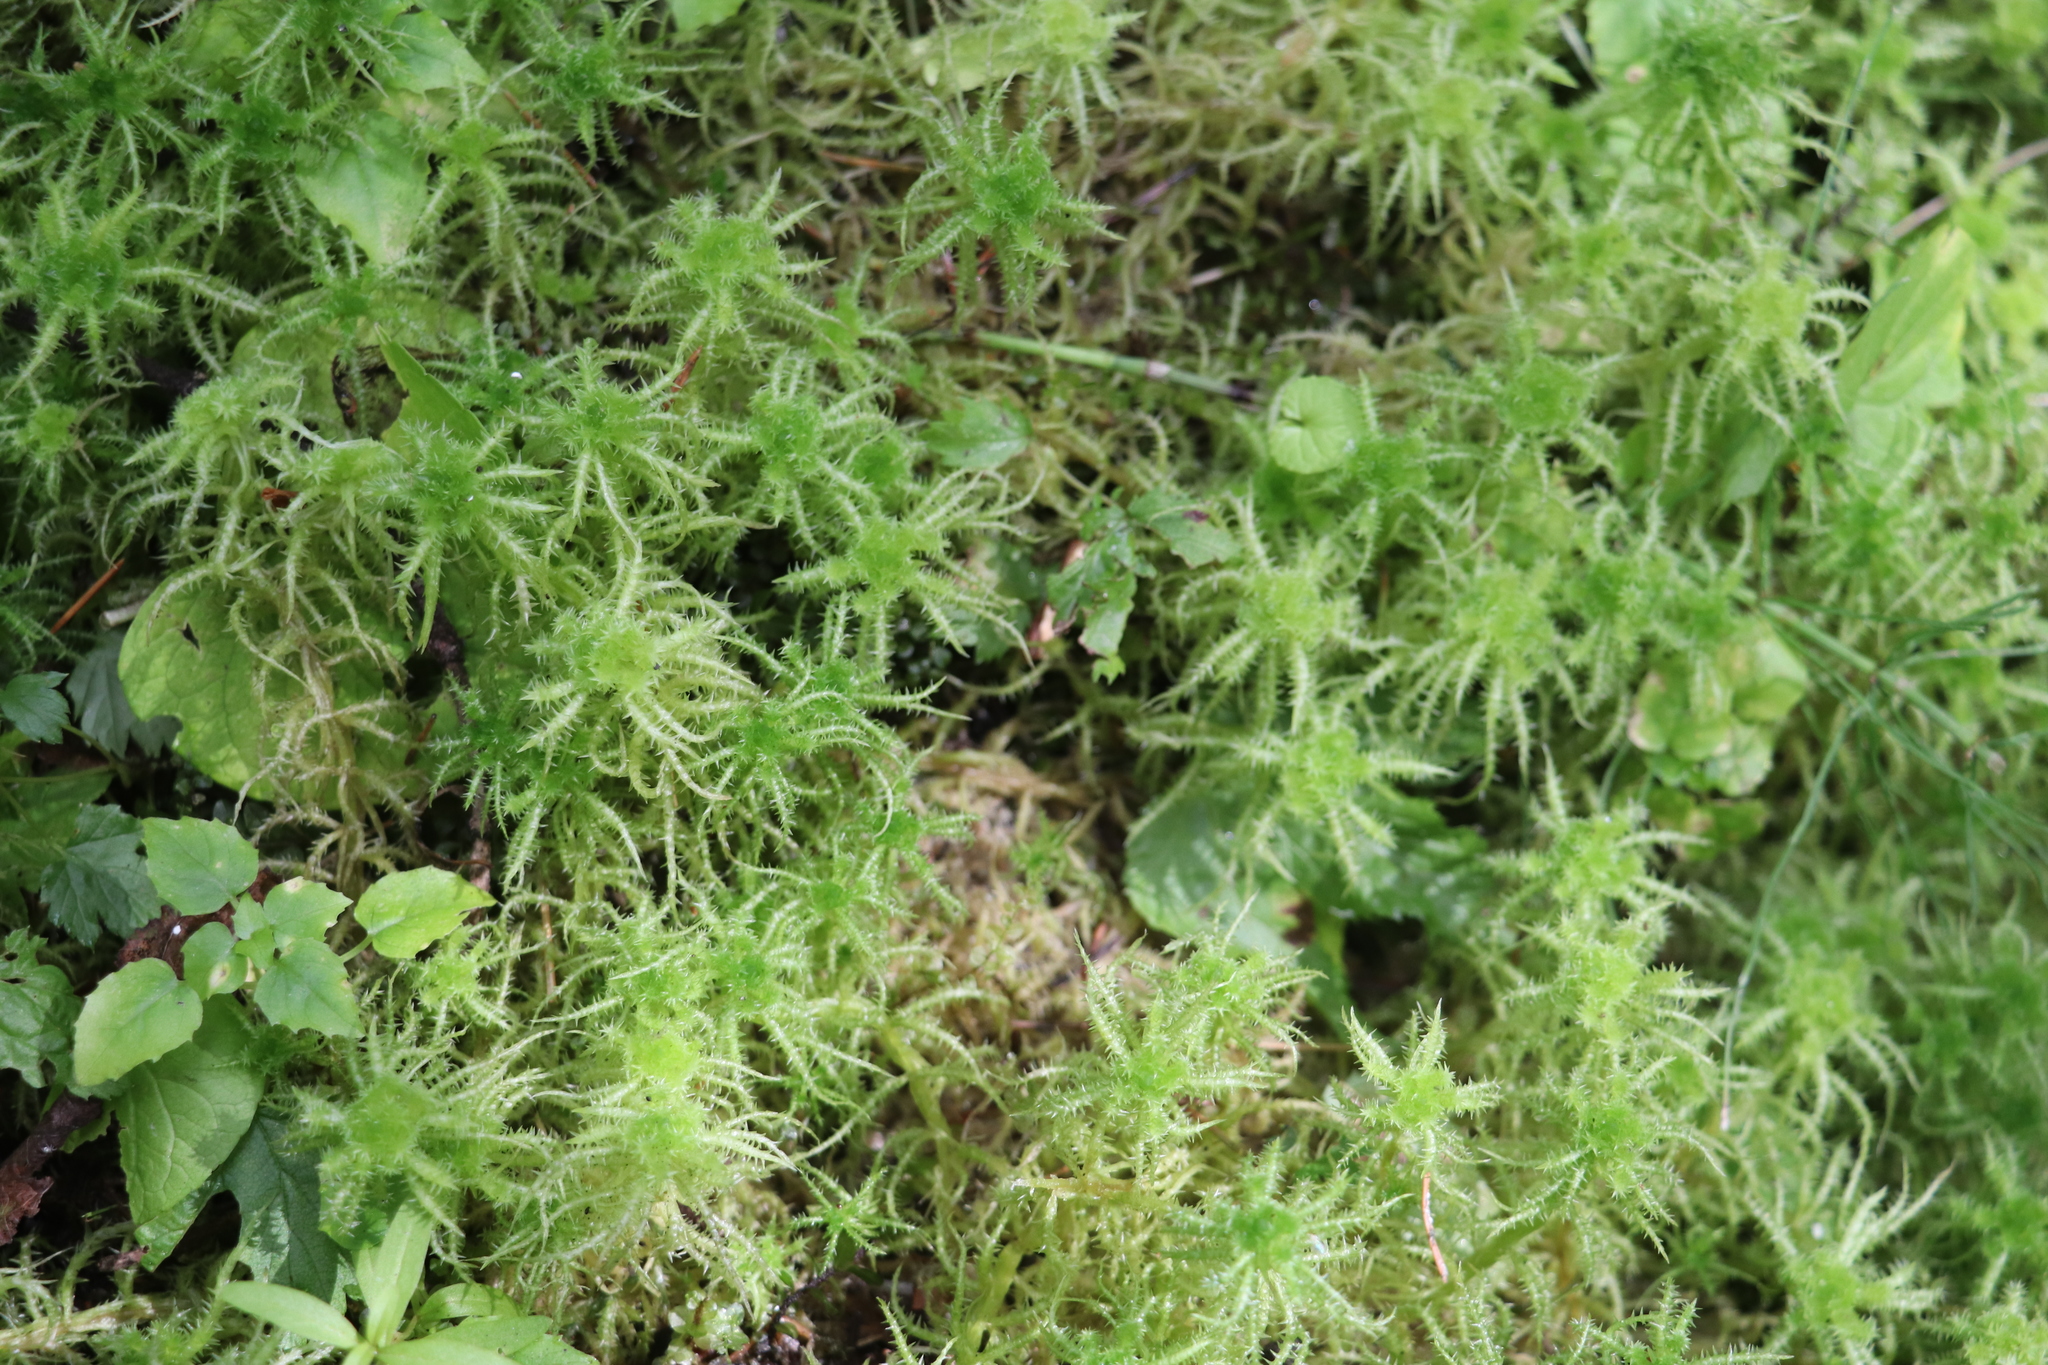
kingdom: Plantae
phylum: Bryophyta
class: Sphagnopsida
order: Sphagnales
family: Sphagnaceae
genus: Sphagnum
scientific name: Sphagnum squarrosum
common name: Shaggy peat moss
